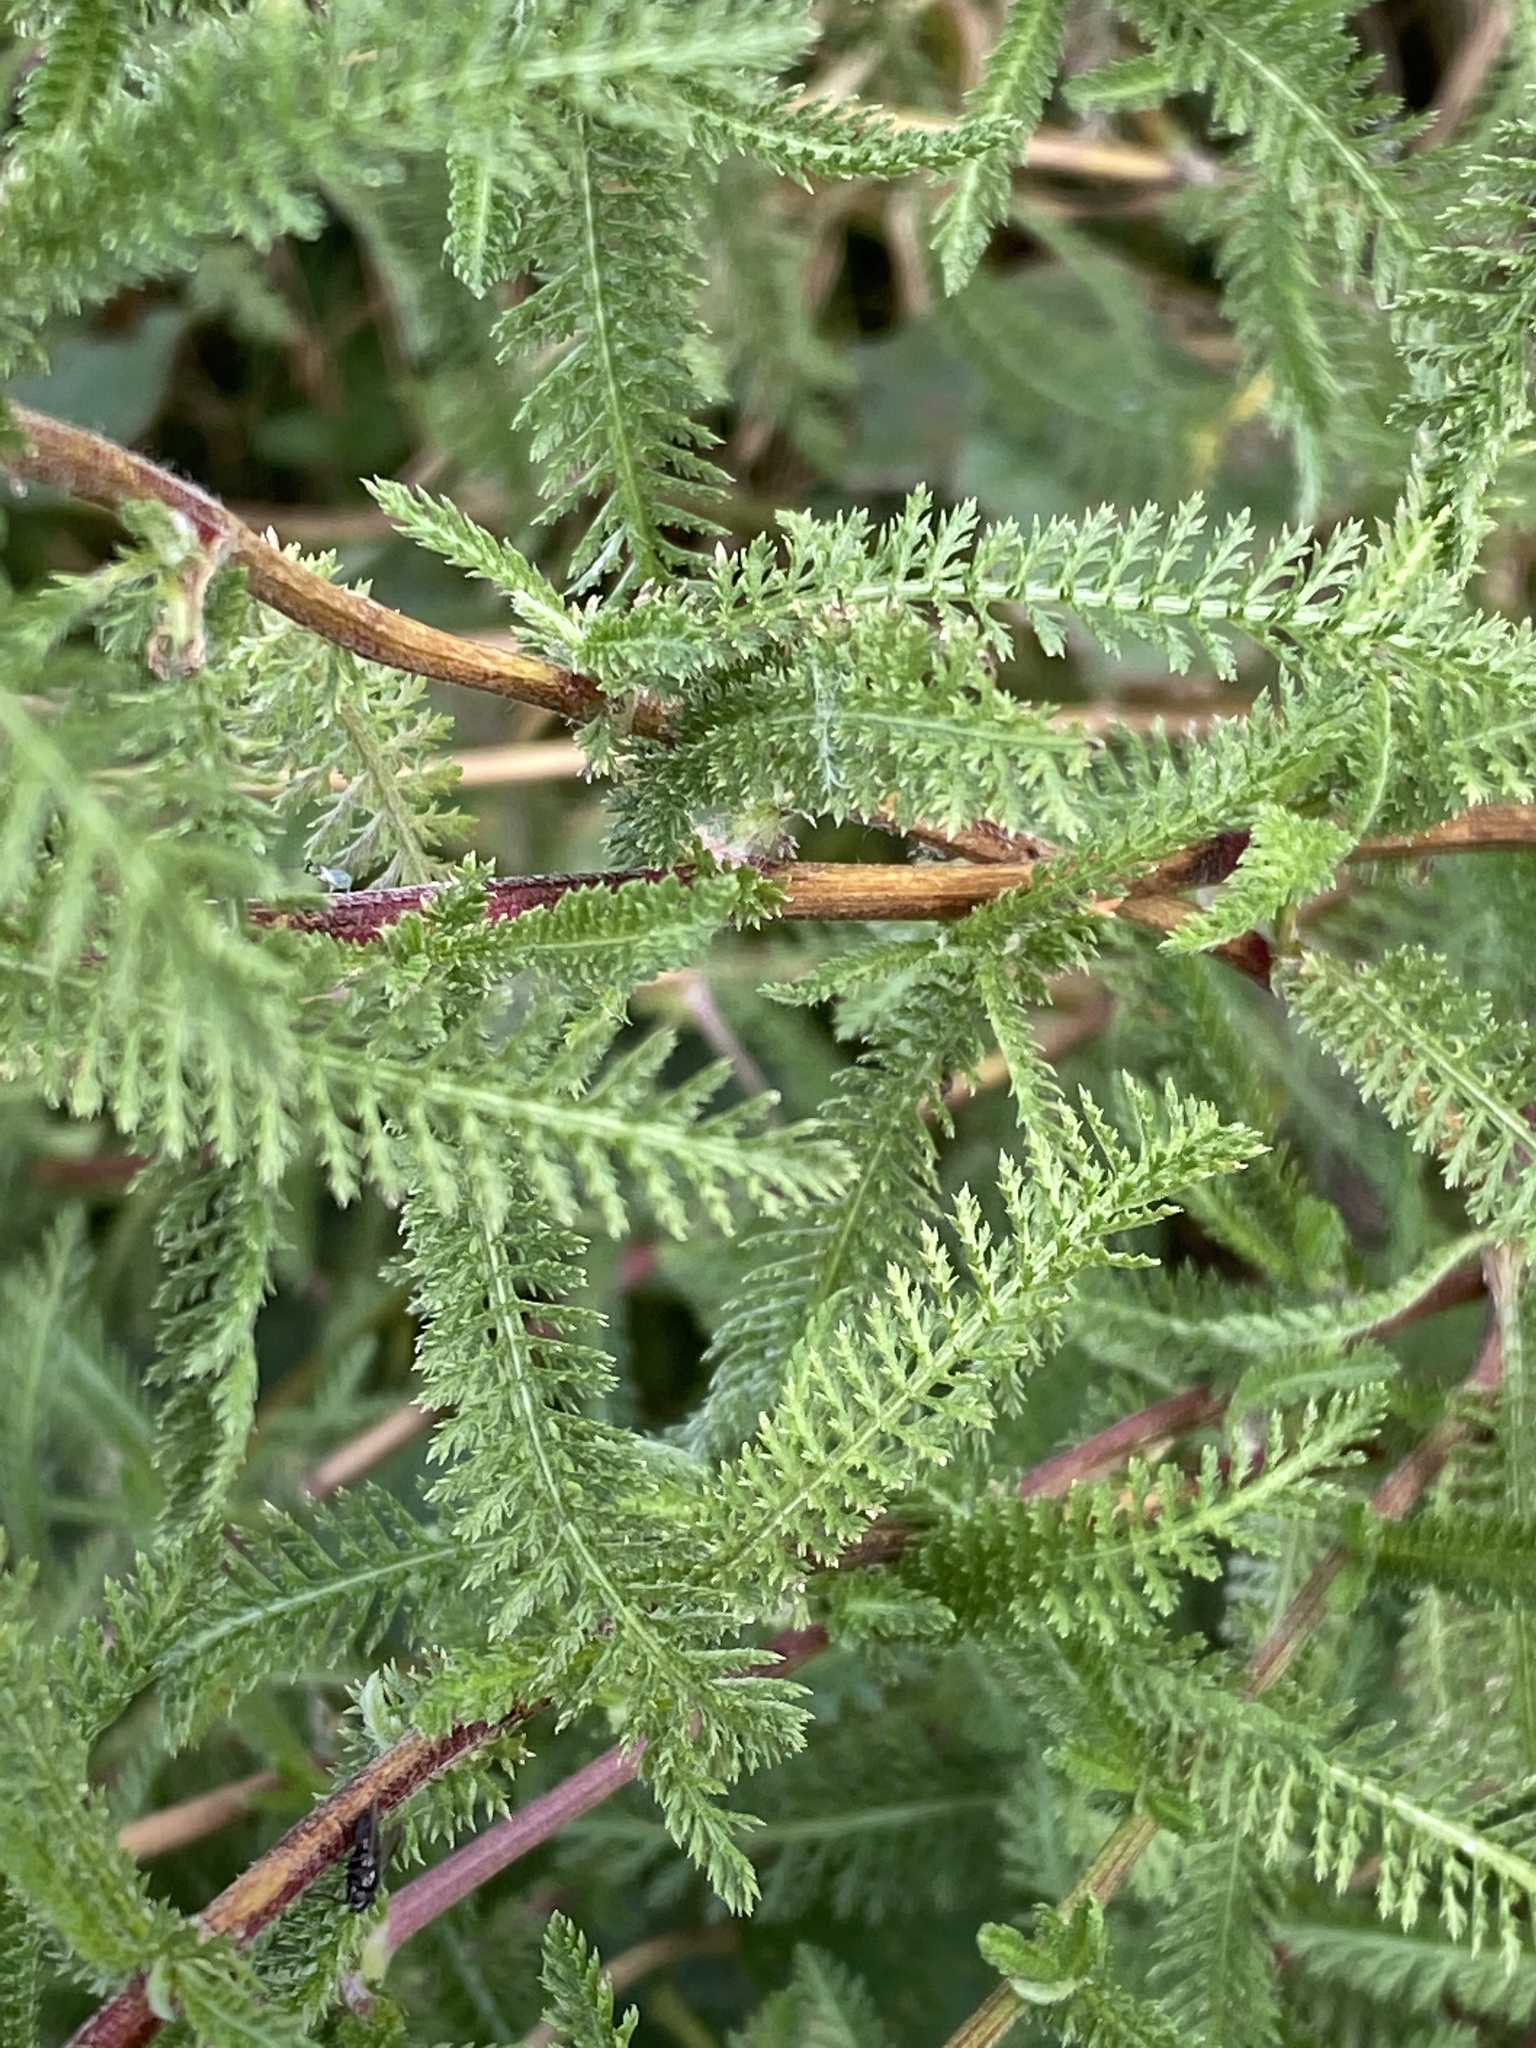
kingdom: Plantae
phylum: Tracheophyta
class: Magnoliopsida
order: Asterales
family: Asteraceae
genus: Achillea
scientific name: Achillea millefolium
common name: Yarrow
